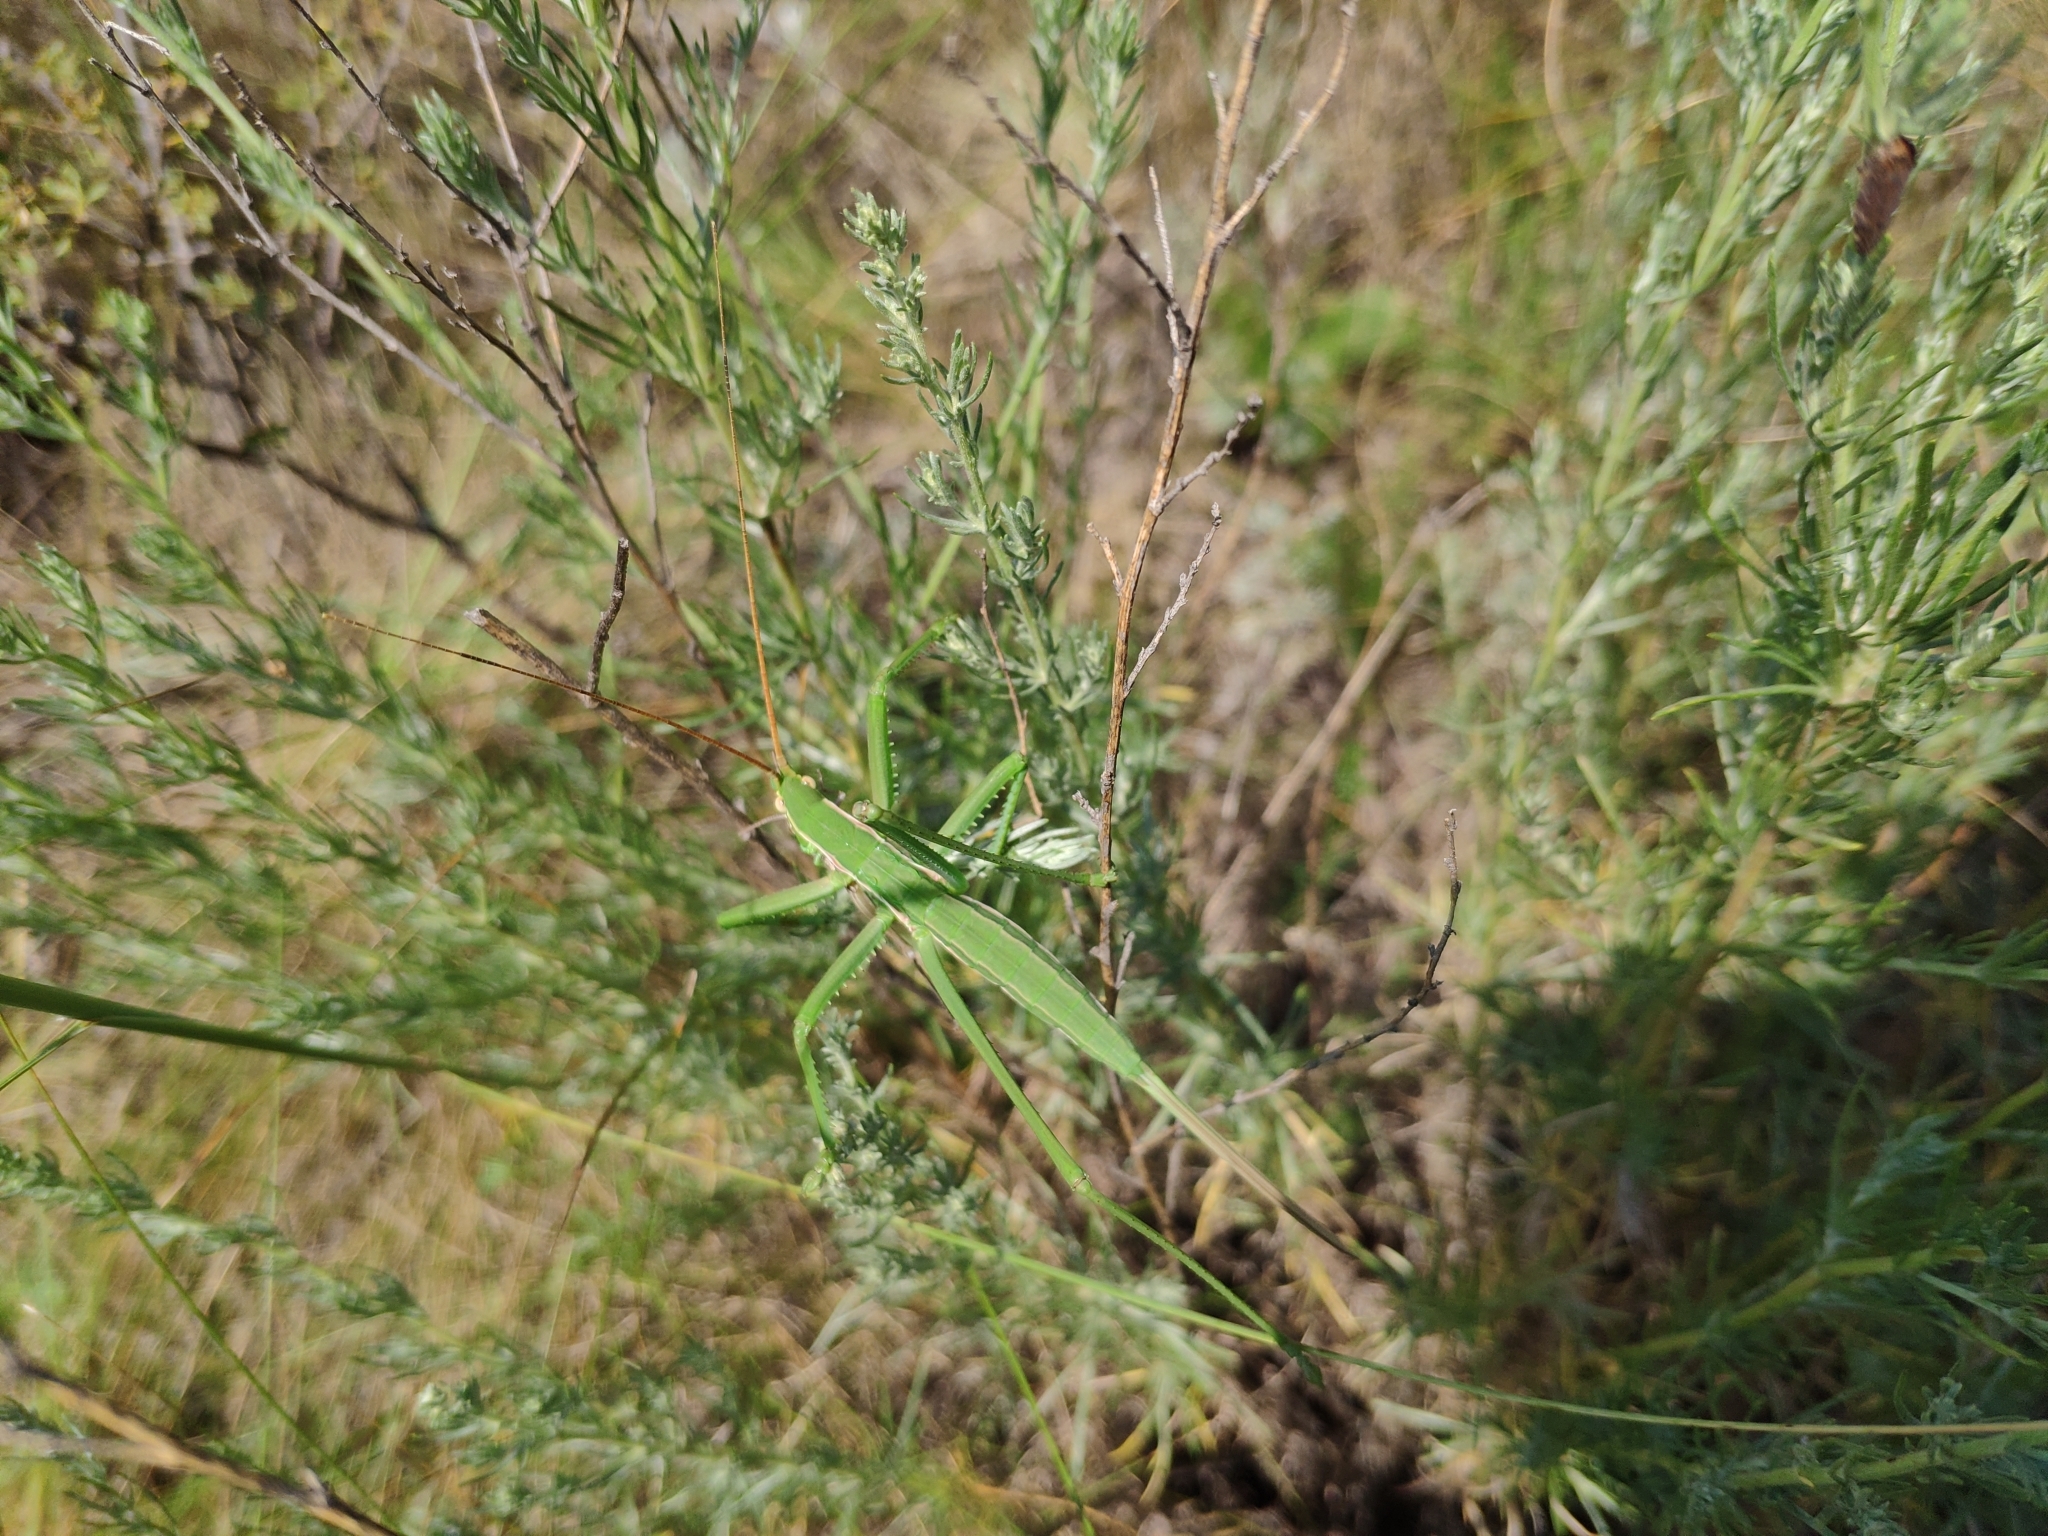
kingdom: Animalia
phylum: Arthropoda
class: Insecta
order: Orthoptera
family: Tettigoniidae
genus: Saga
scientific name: Saga pedo
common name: Common predatory bush-cricket
